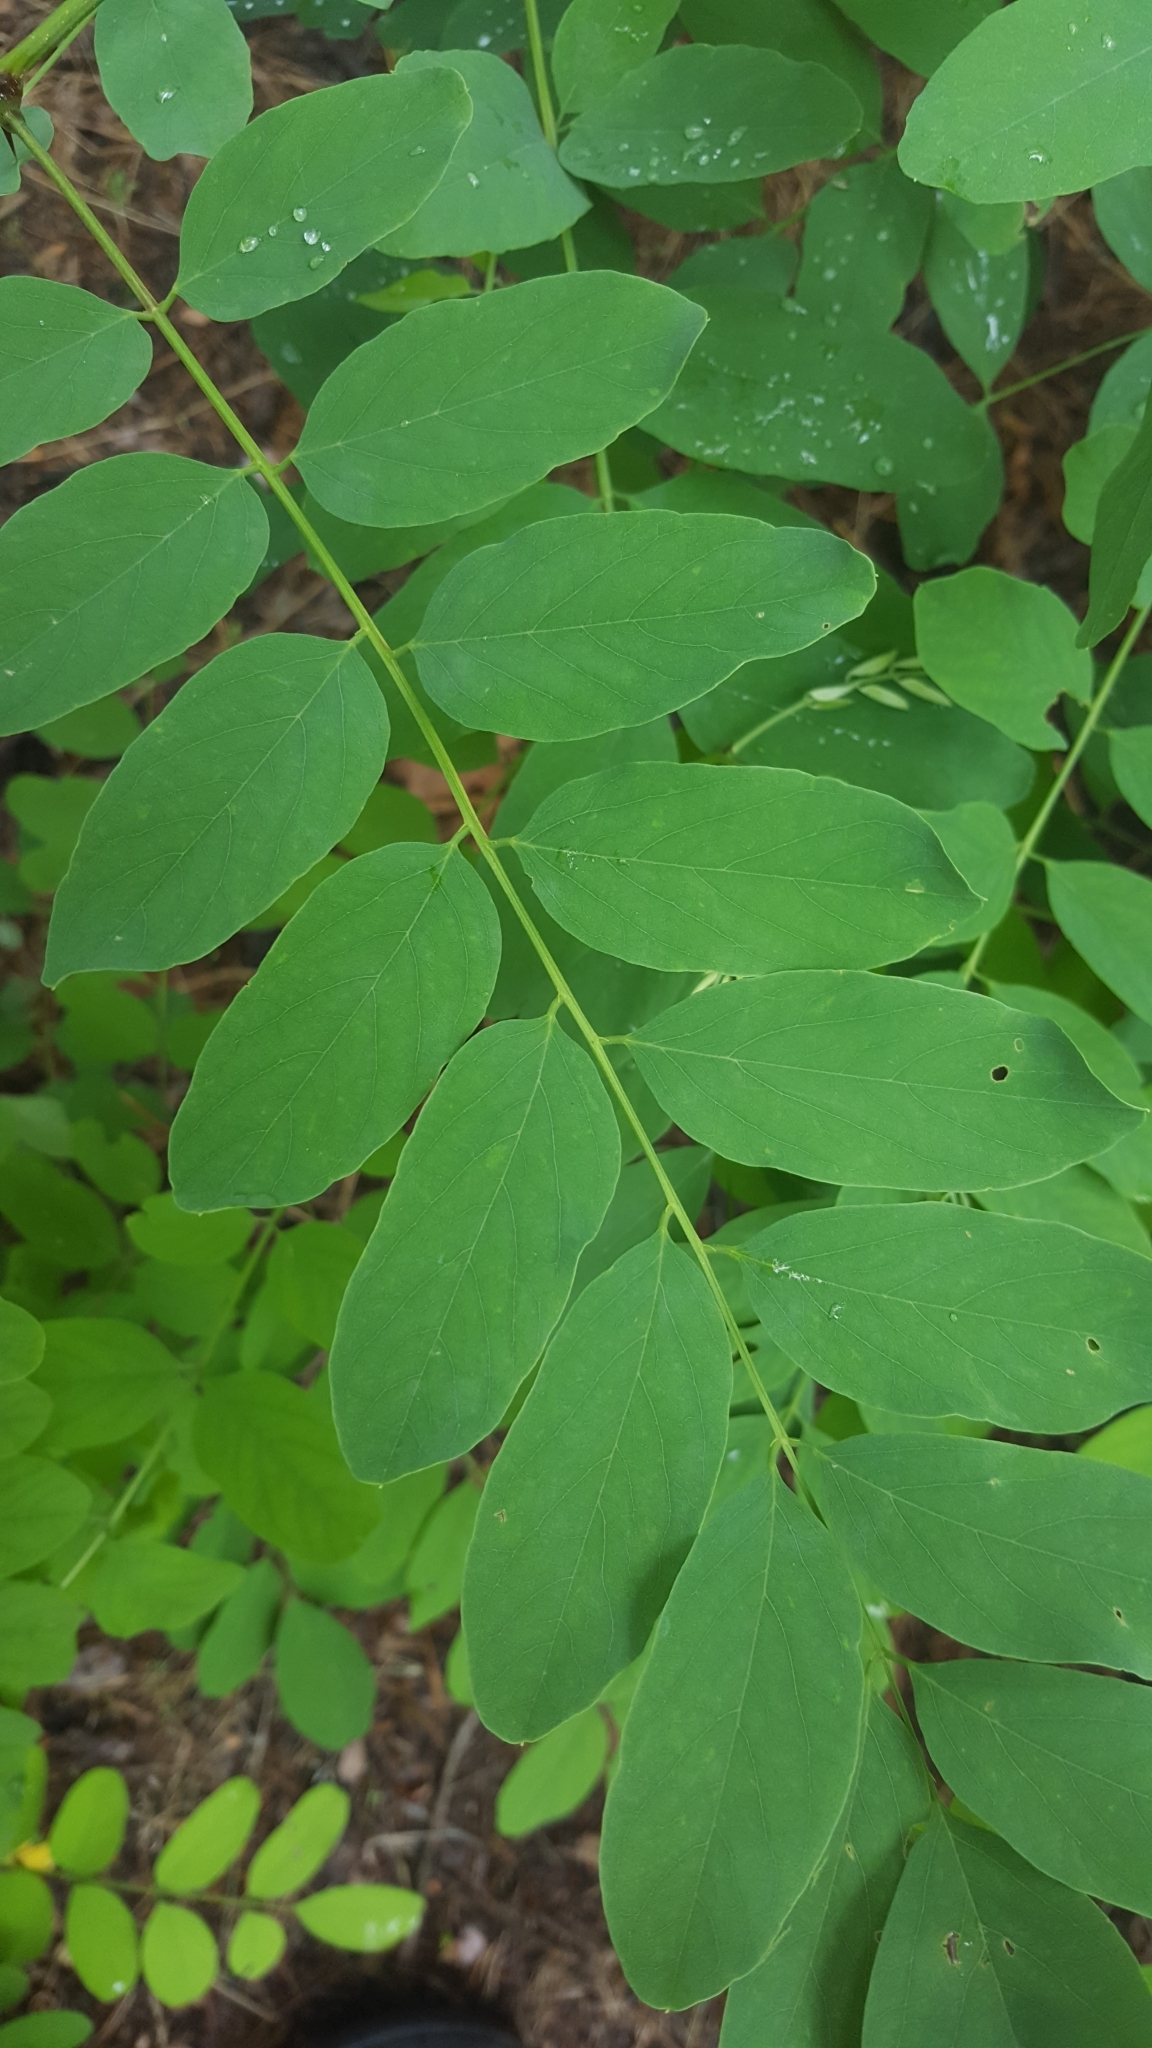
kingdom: Plantae
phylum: Tracheophyta
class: Magnoliopsida
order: Fabales
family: Fabaceae
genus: Robinia
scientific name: Robinia pseudoacacia
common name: Black locust
